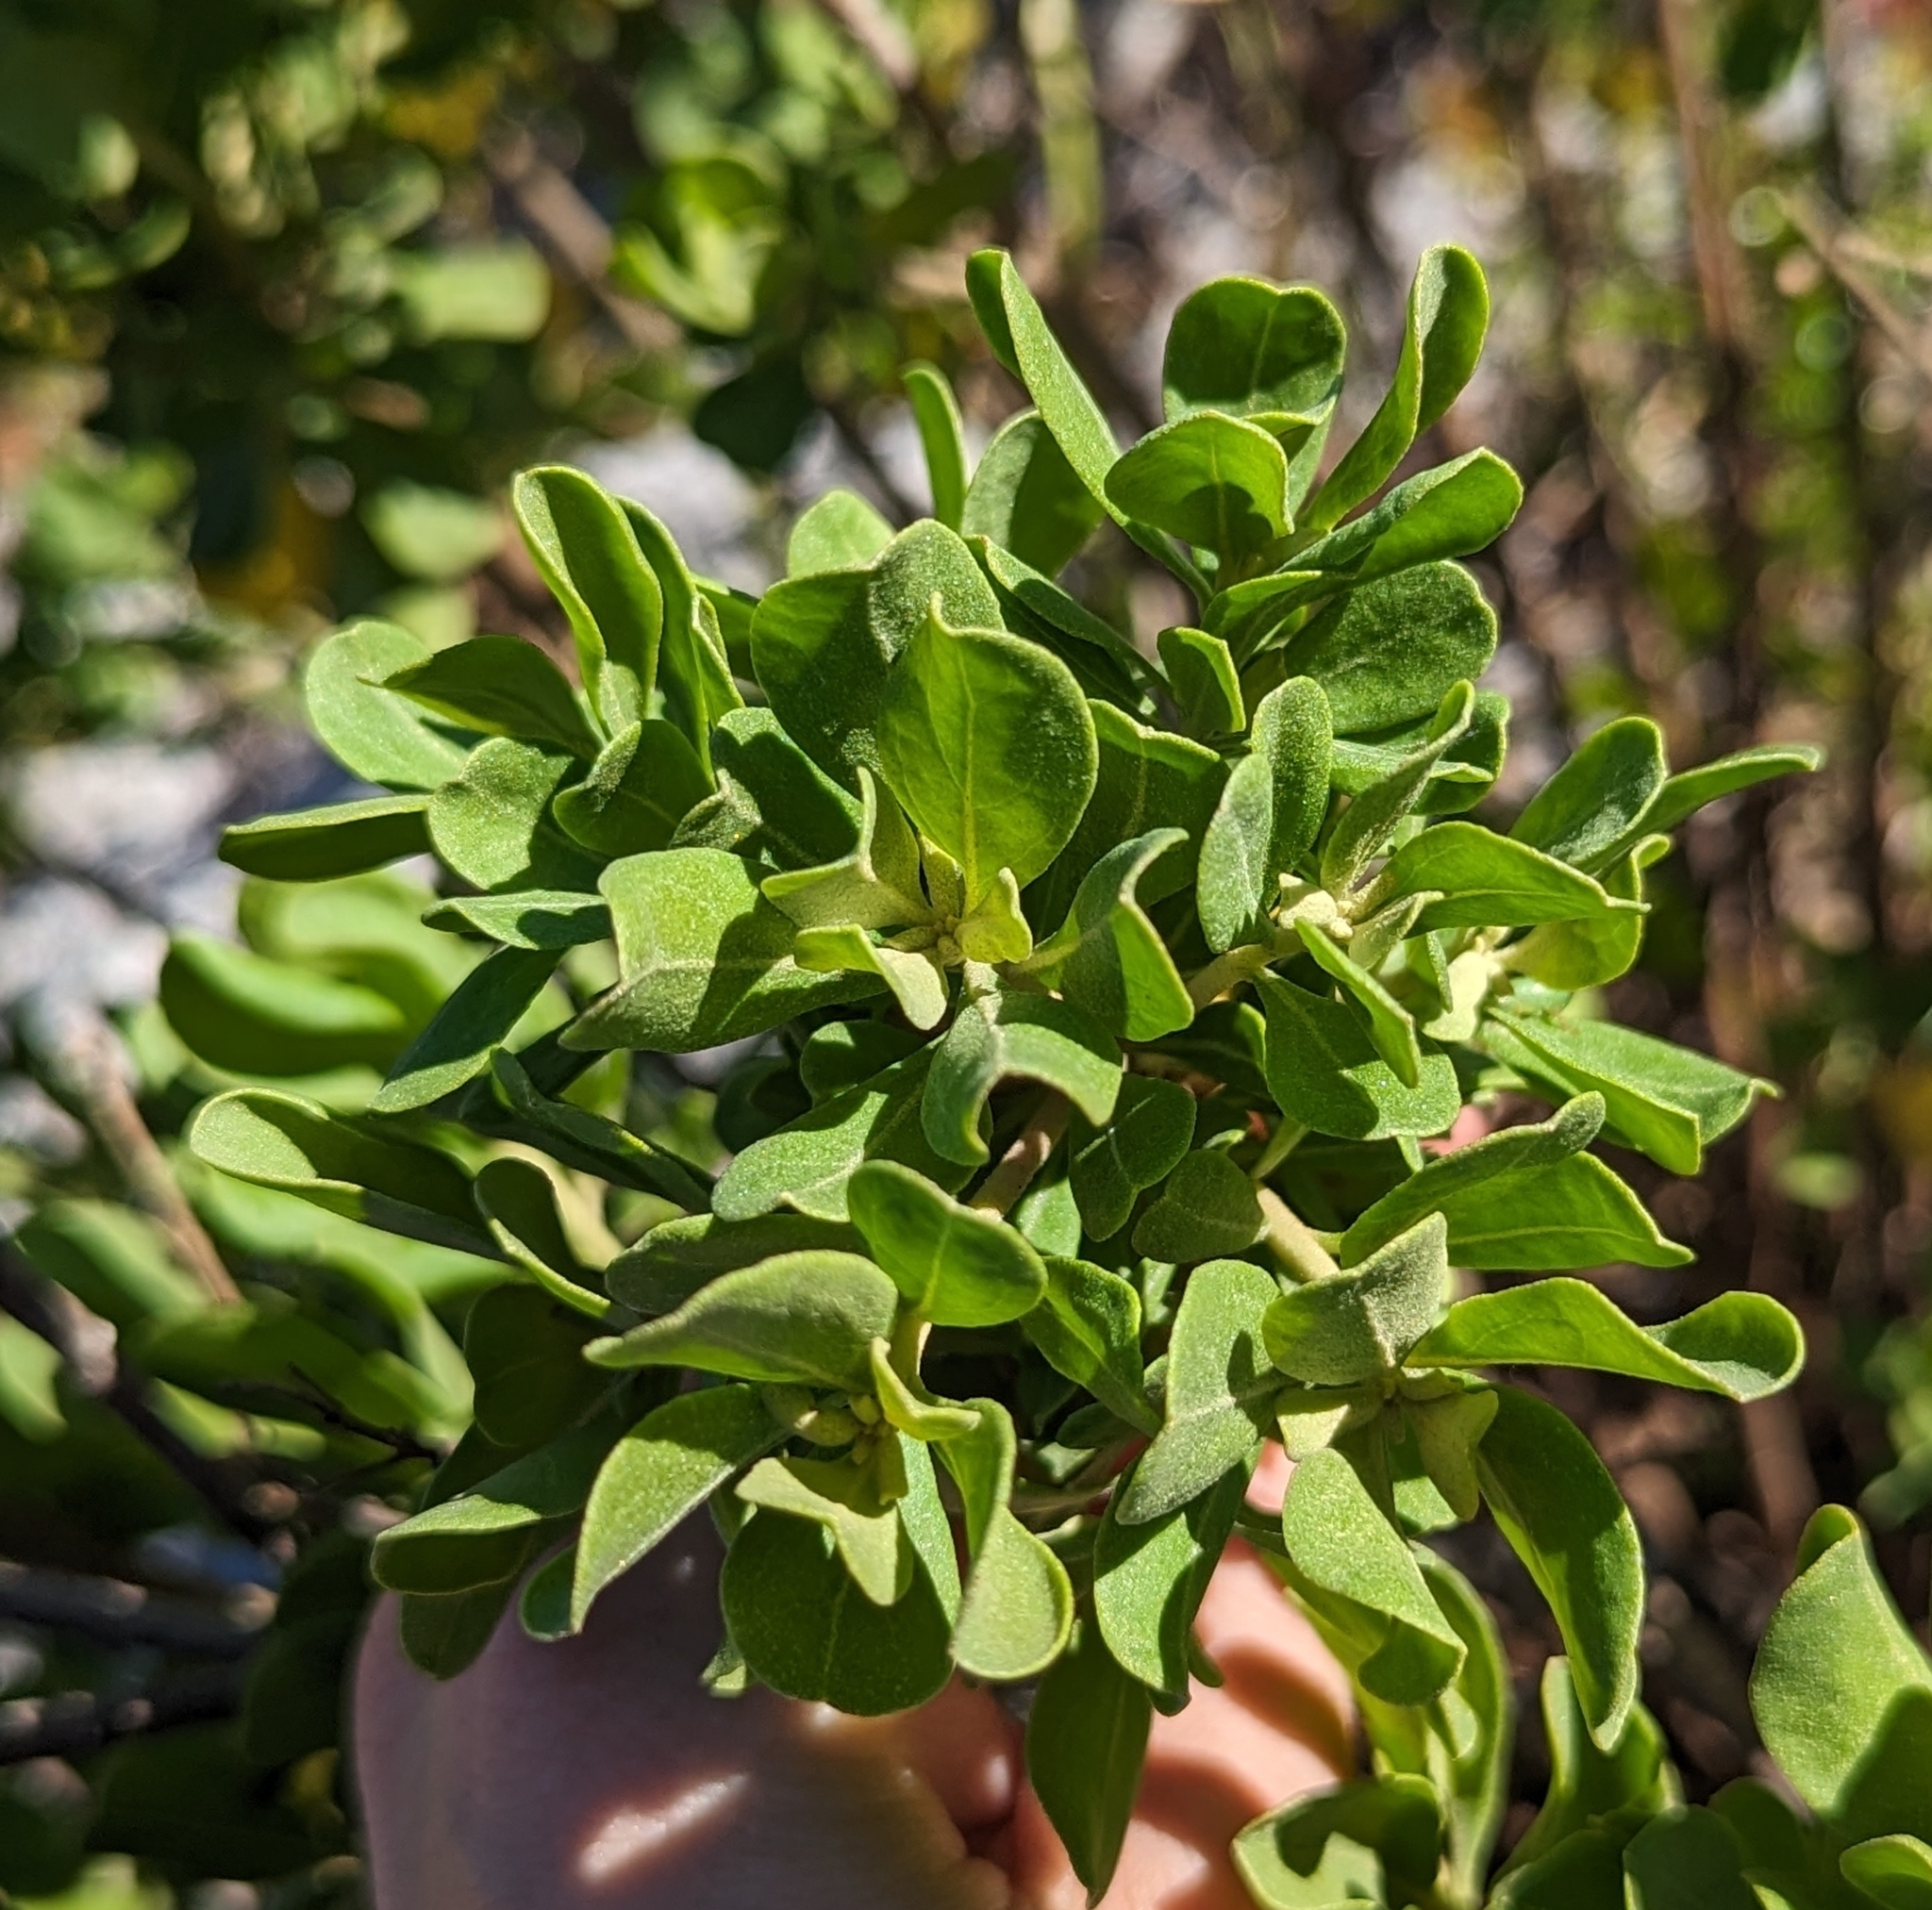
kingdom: Plantae
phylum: Tracheophyta
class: Magnoliopsida
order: Asterales
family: Asteraceae
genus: Garberia
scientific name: Garberia heterophylla
